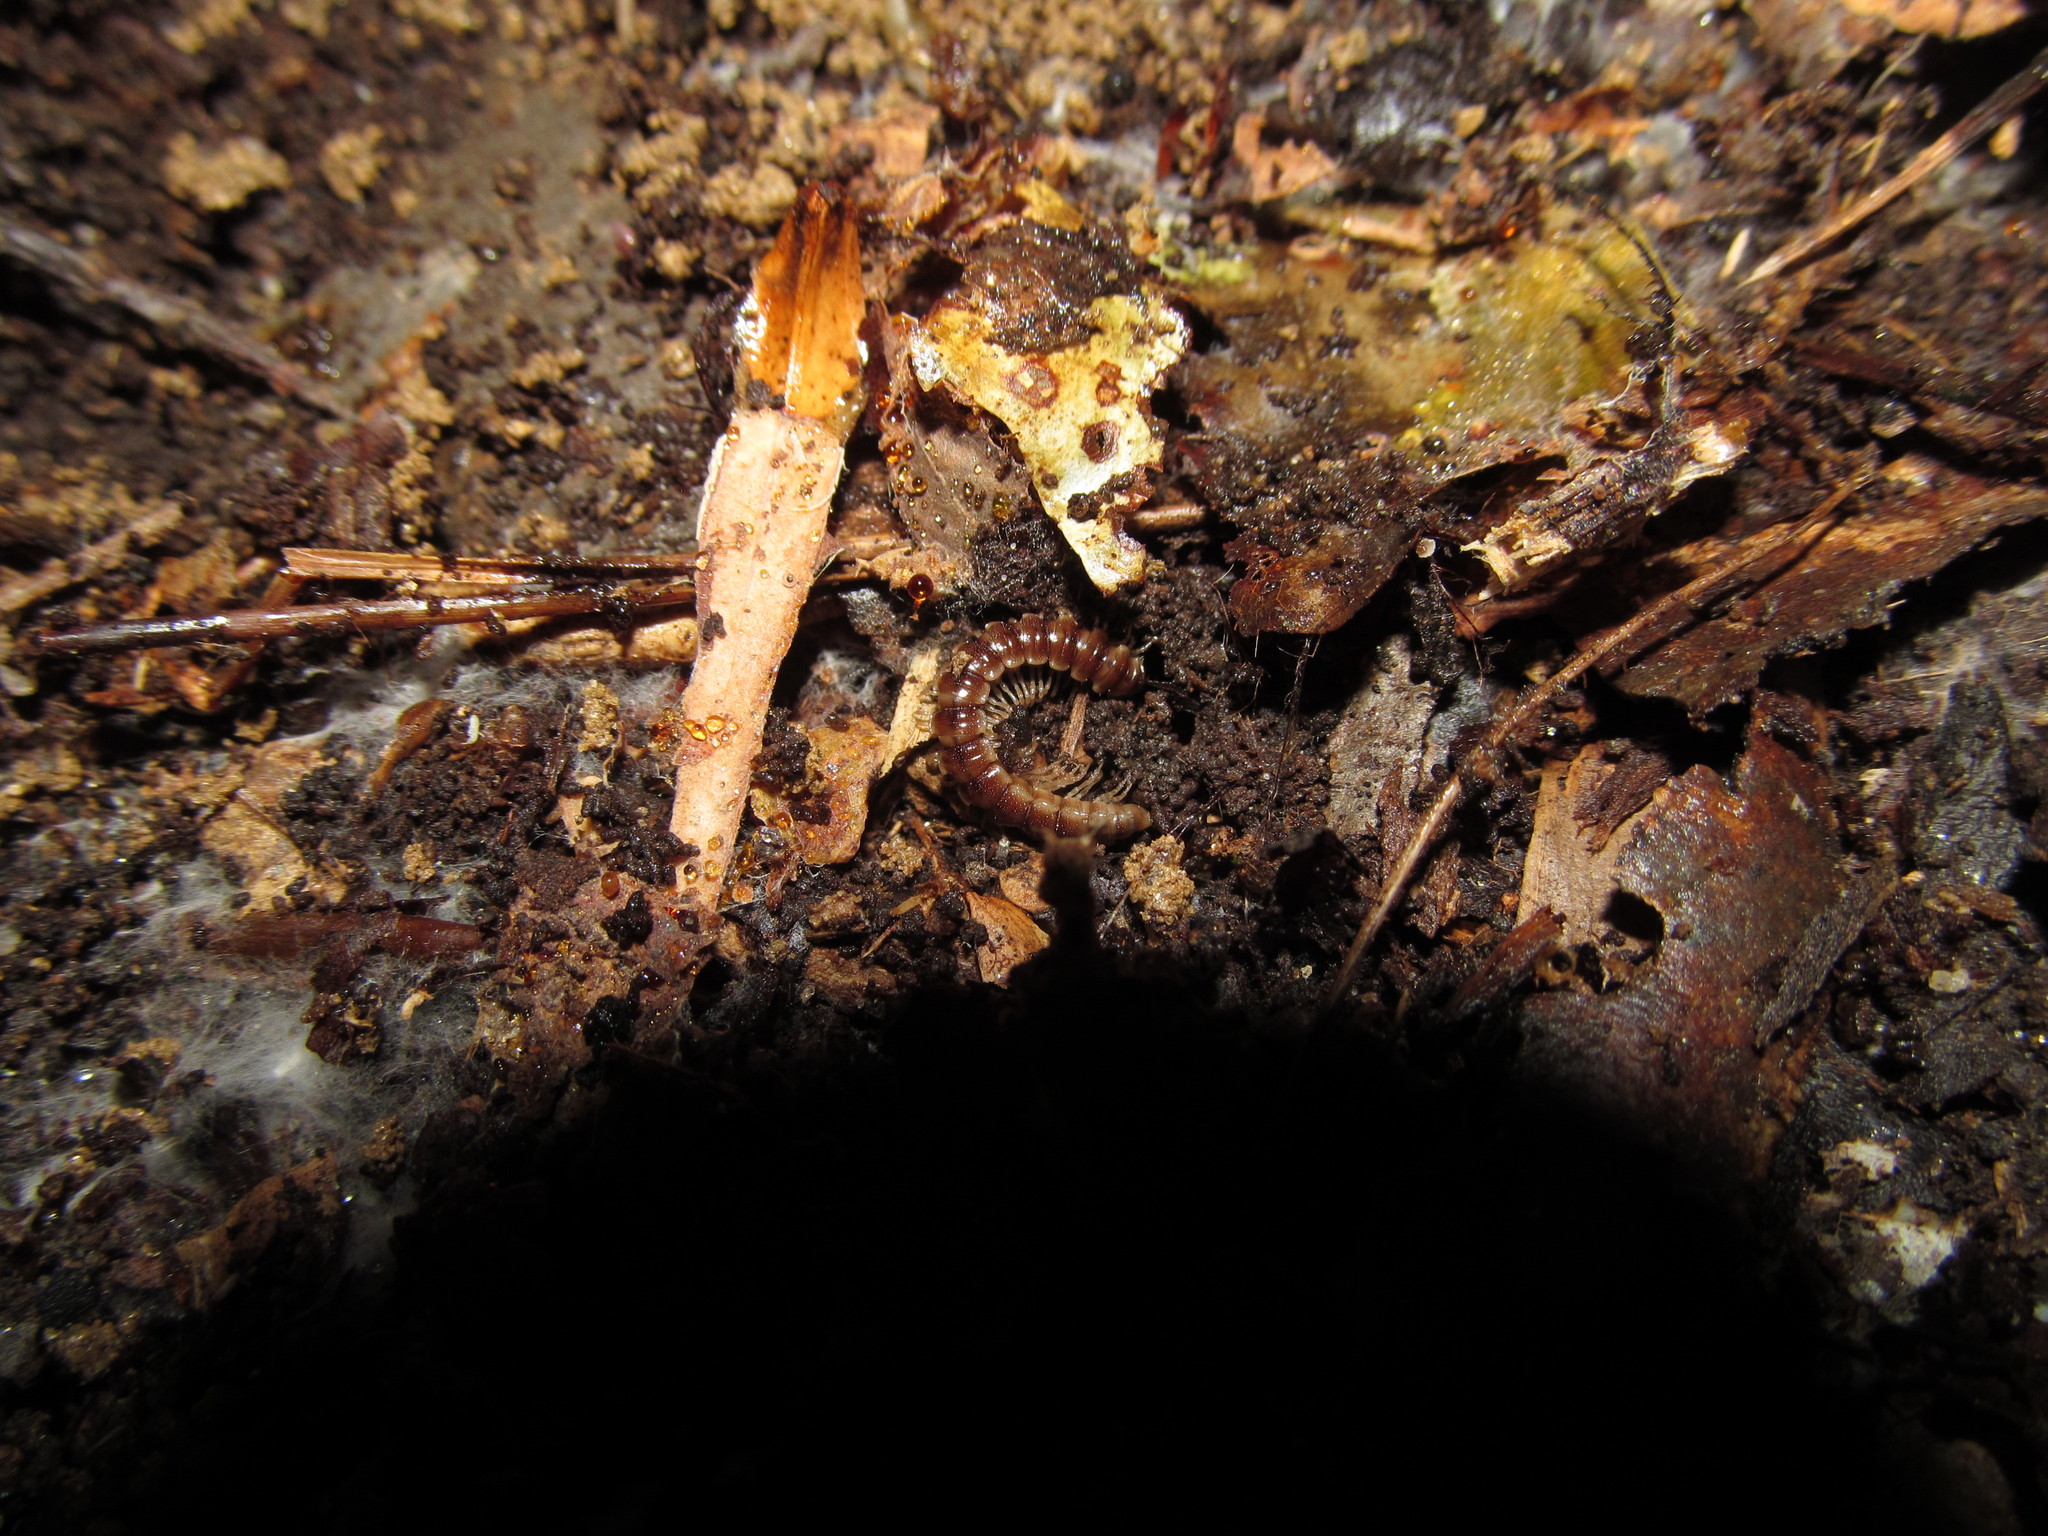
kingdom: Animalia
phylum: Arthropoda
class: Diplopoda
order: Polydesmida
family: Paradoxosomatidae
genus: Oxidus
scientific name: Oxidus gracilis
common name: Greenhouse millipede
